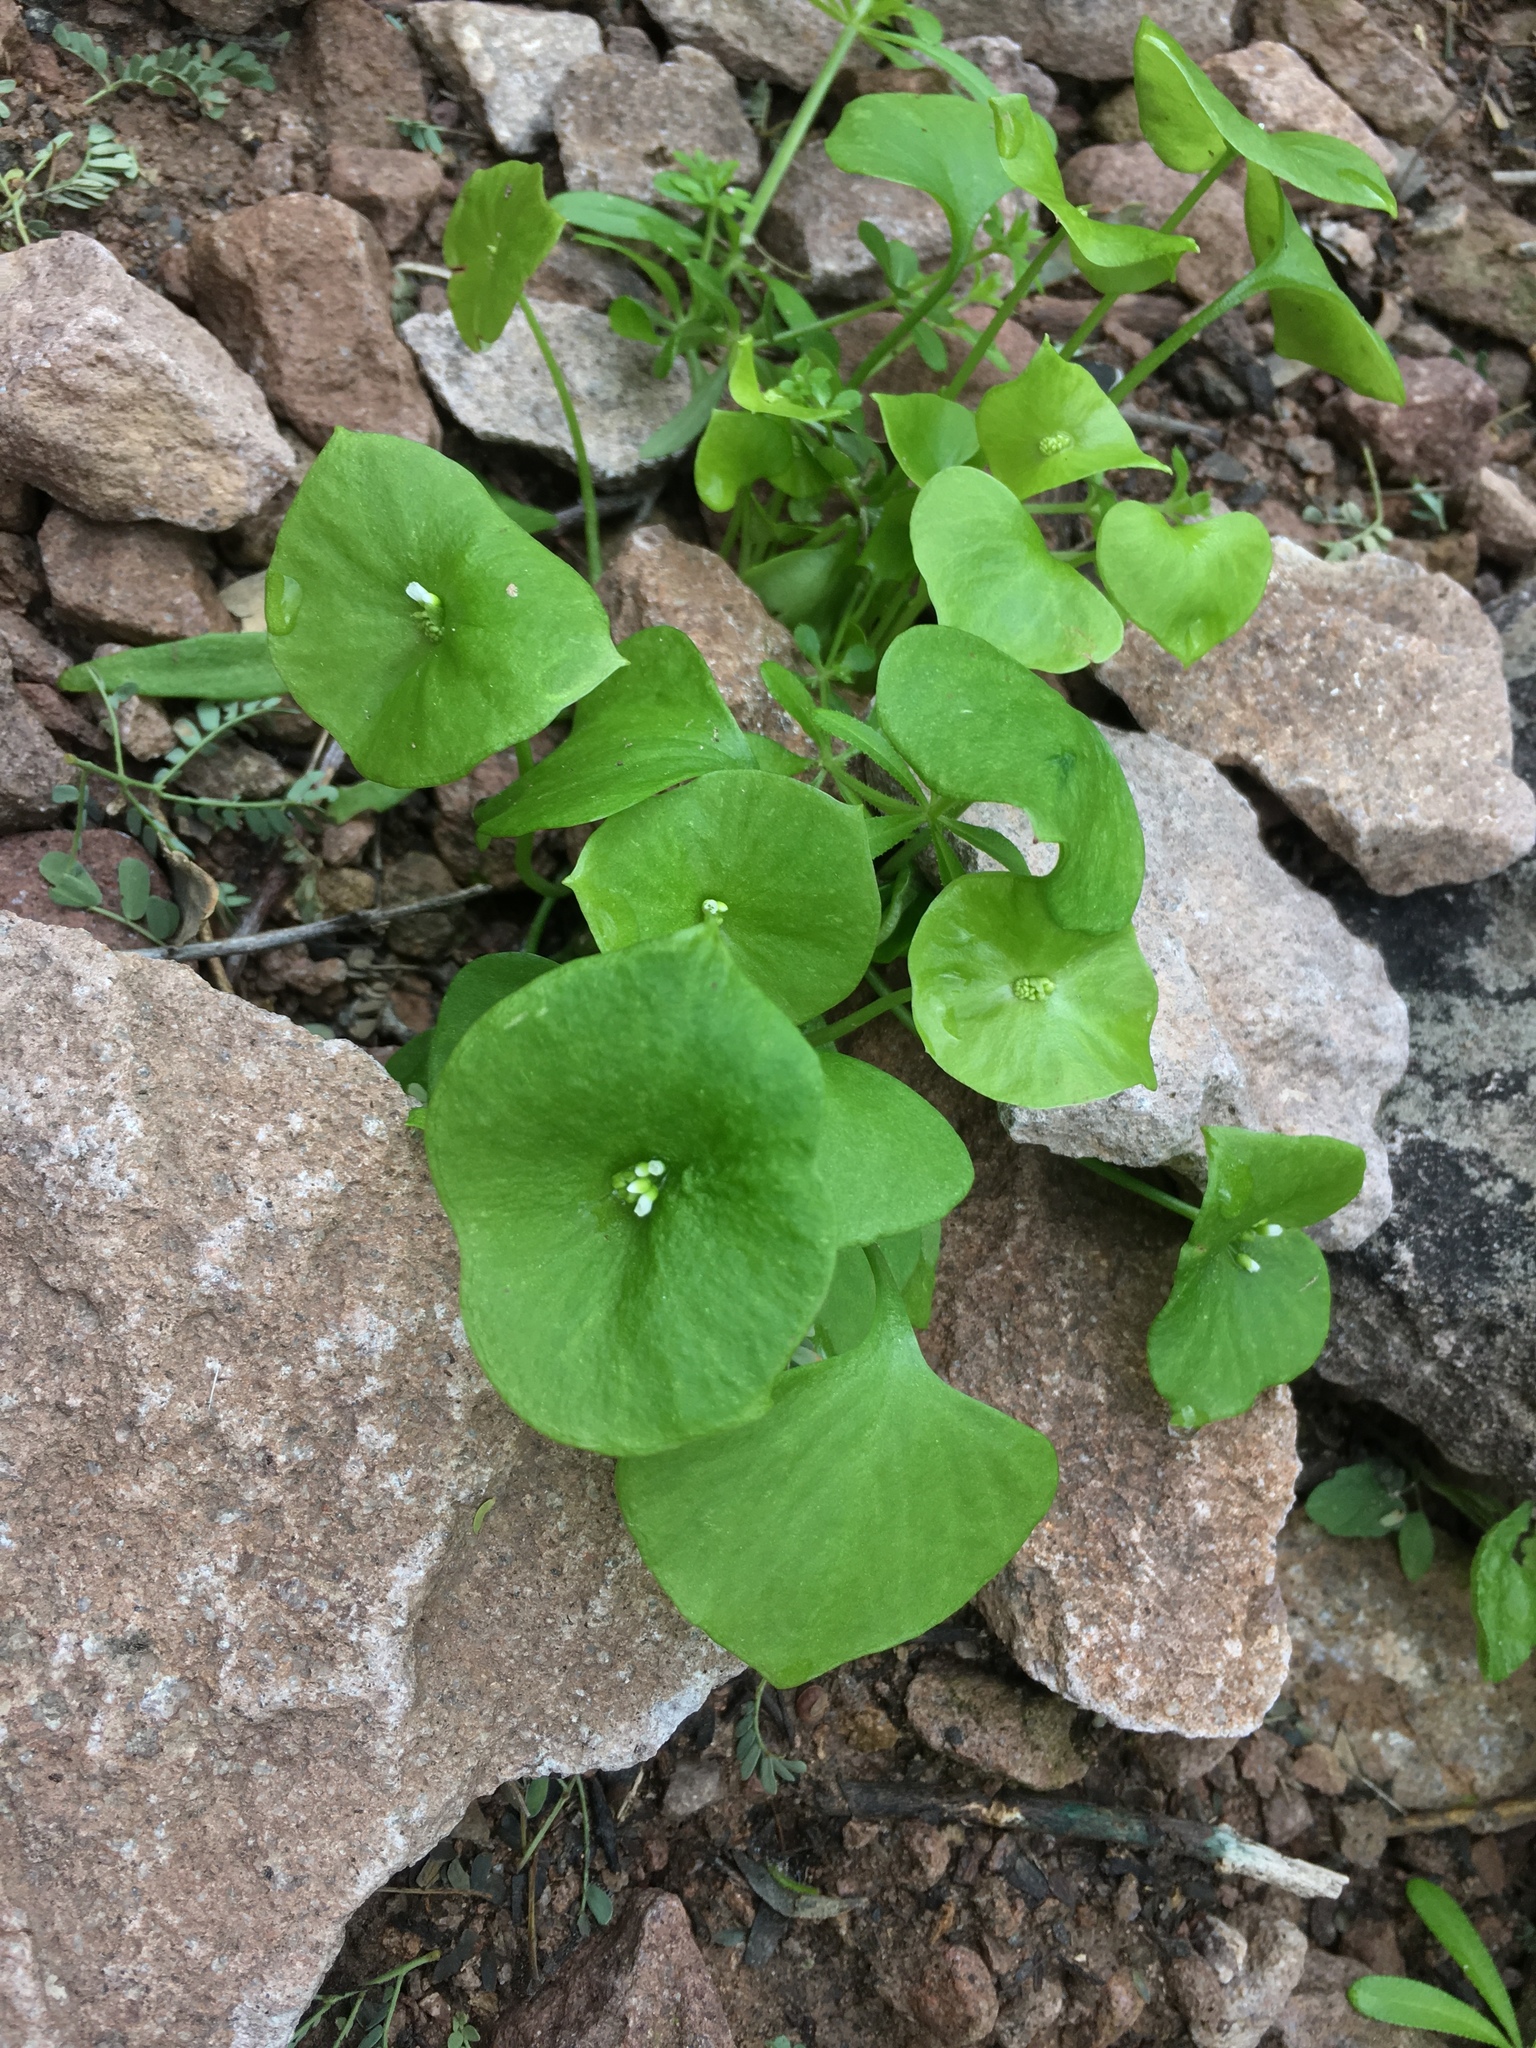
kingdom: Plantae
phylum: Tracheophyta
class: Magnoliopsida
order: Caryophyllales
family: Montiaceae
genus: Claytonia
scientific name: Claytonia perfoliata
